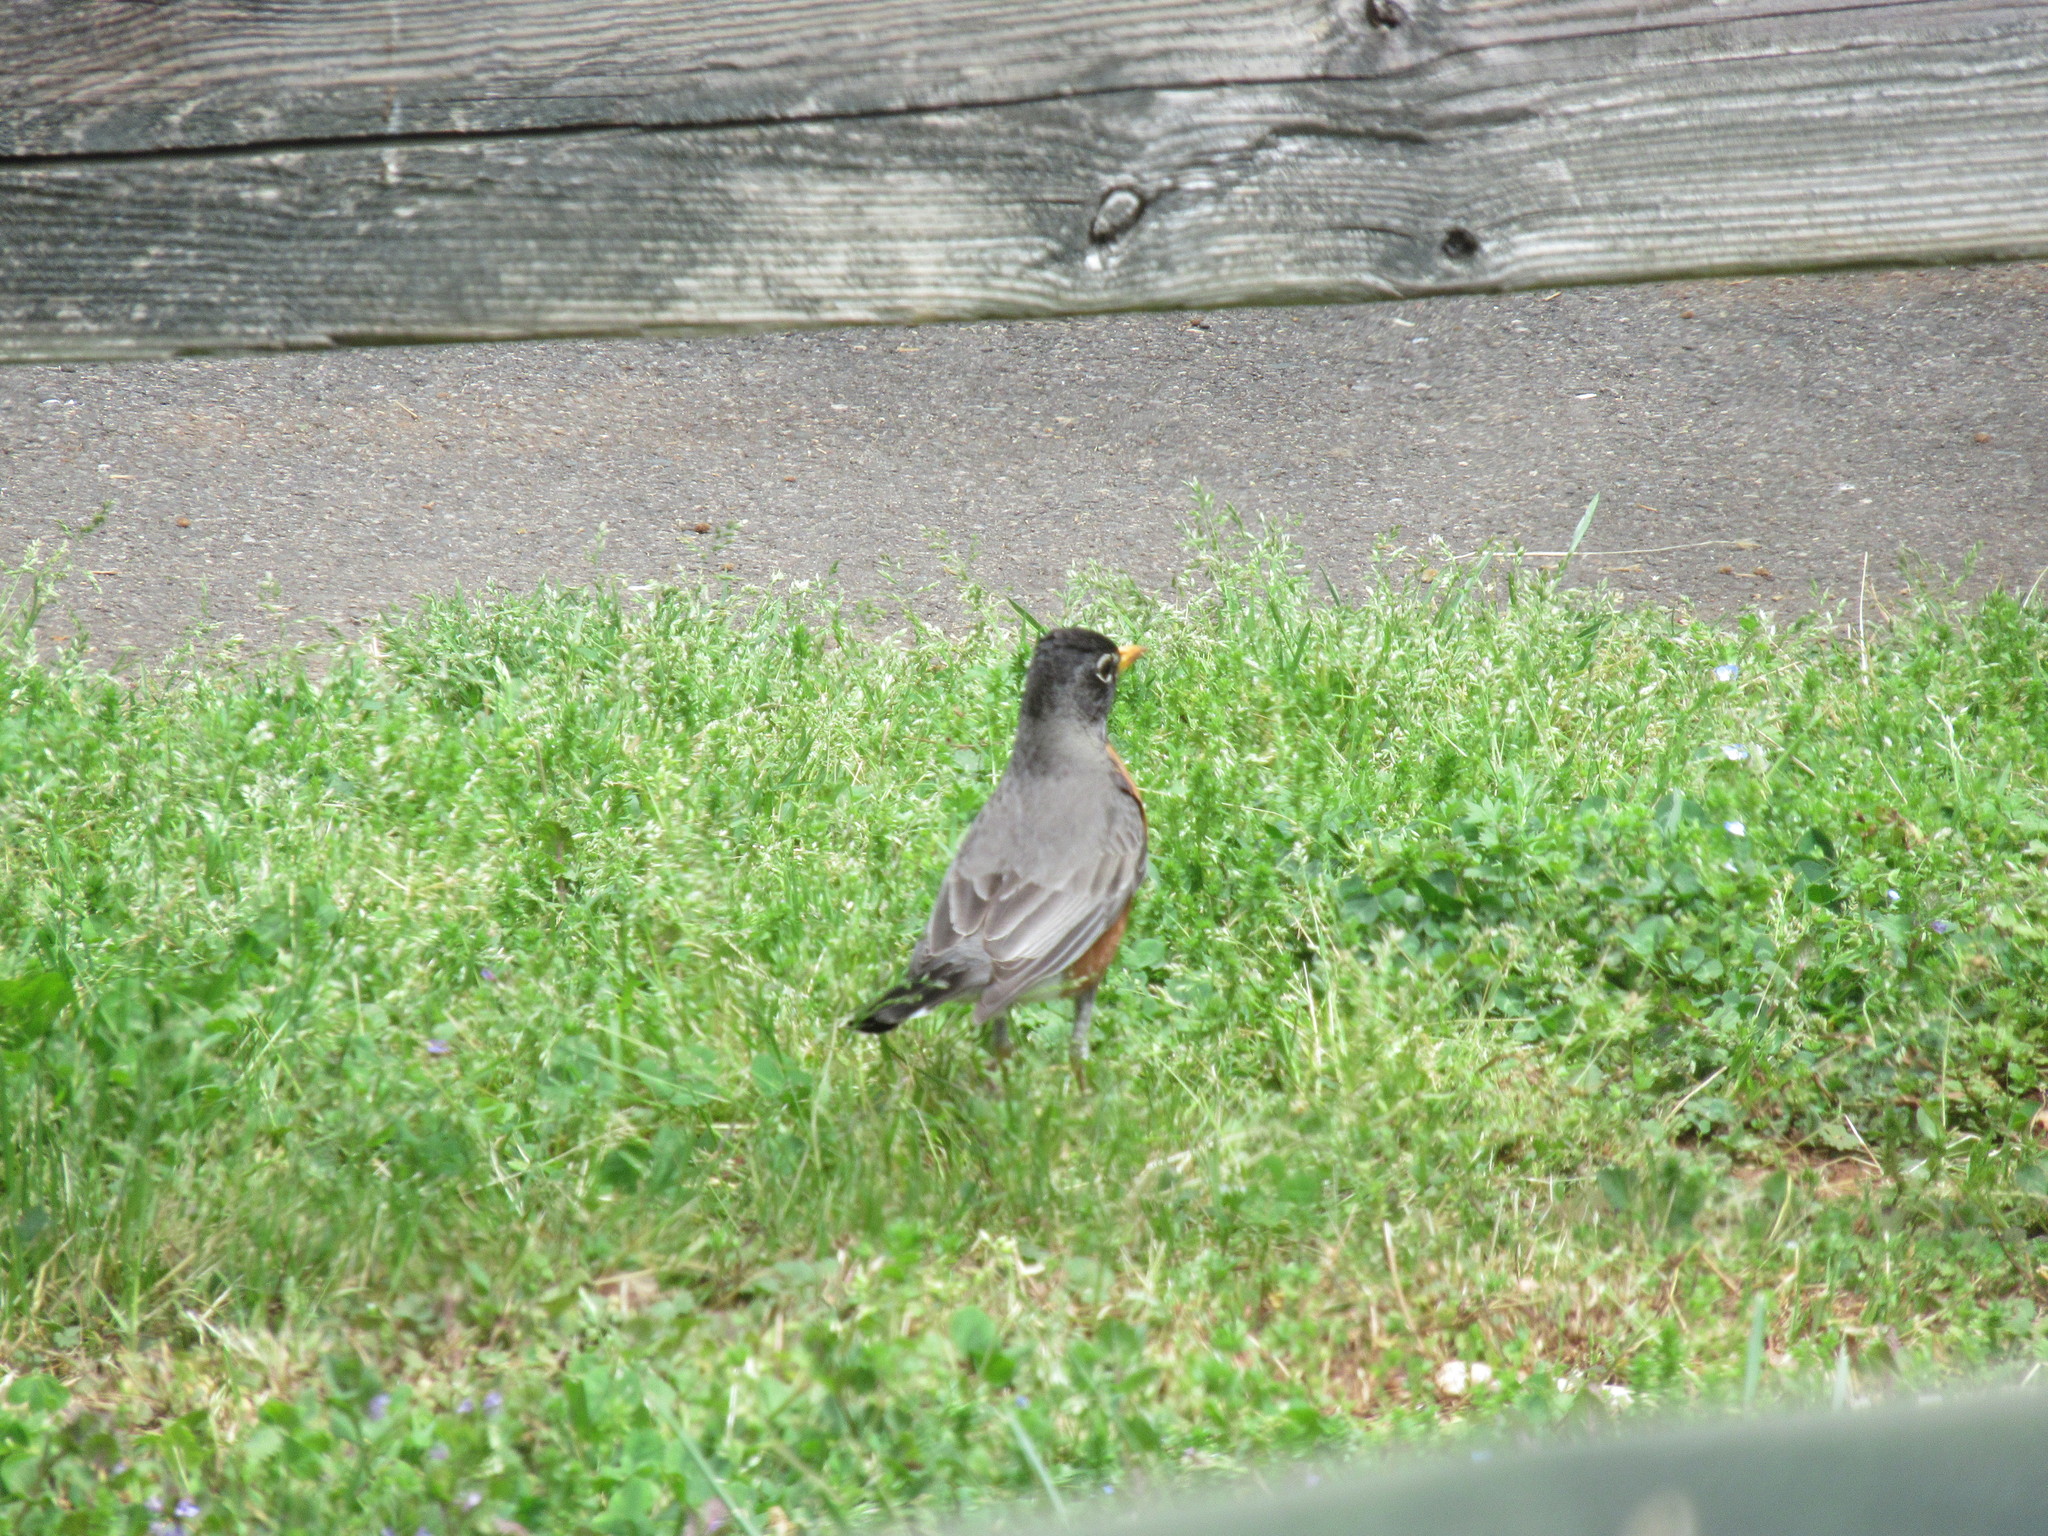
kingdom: Animalia
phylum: Chordata
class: Aves
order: Passeriformes
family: Turdidae
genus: Turdus
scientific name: Turdus migratorius
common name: American robin
